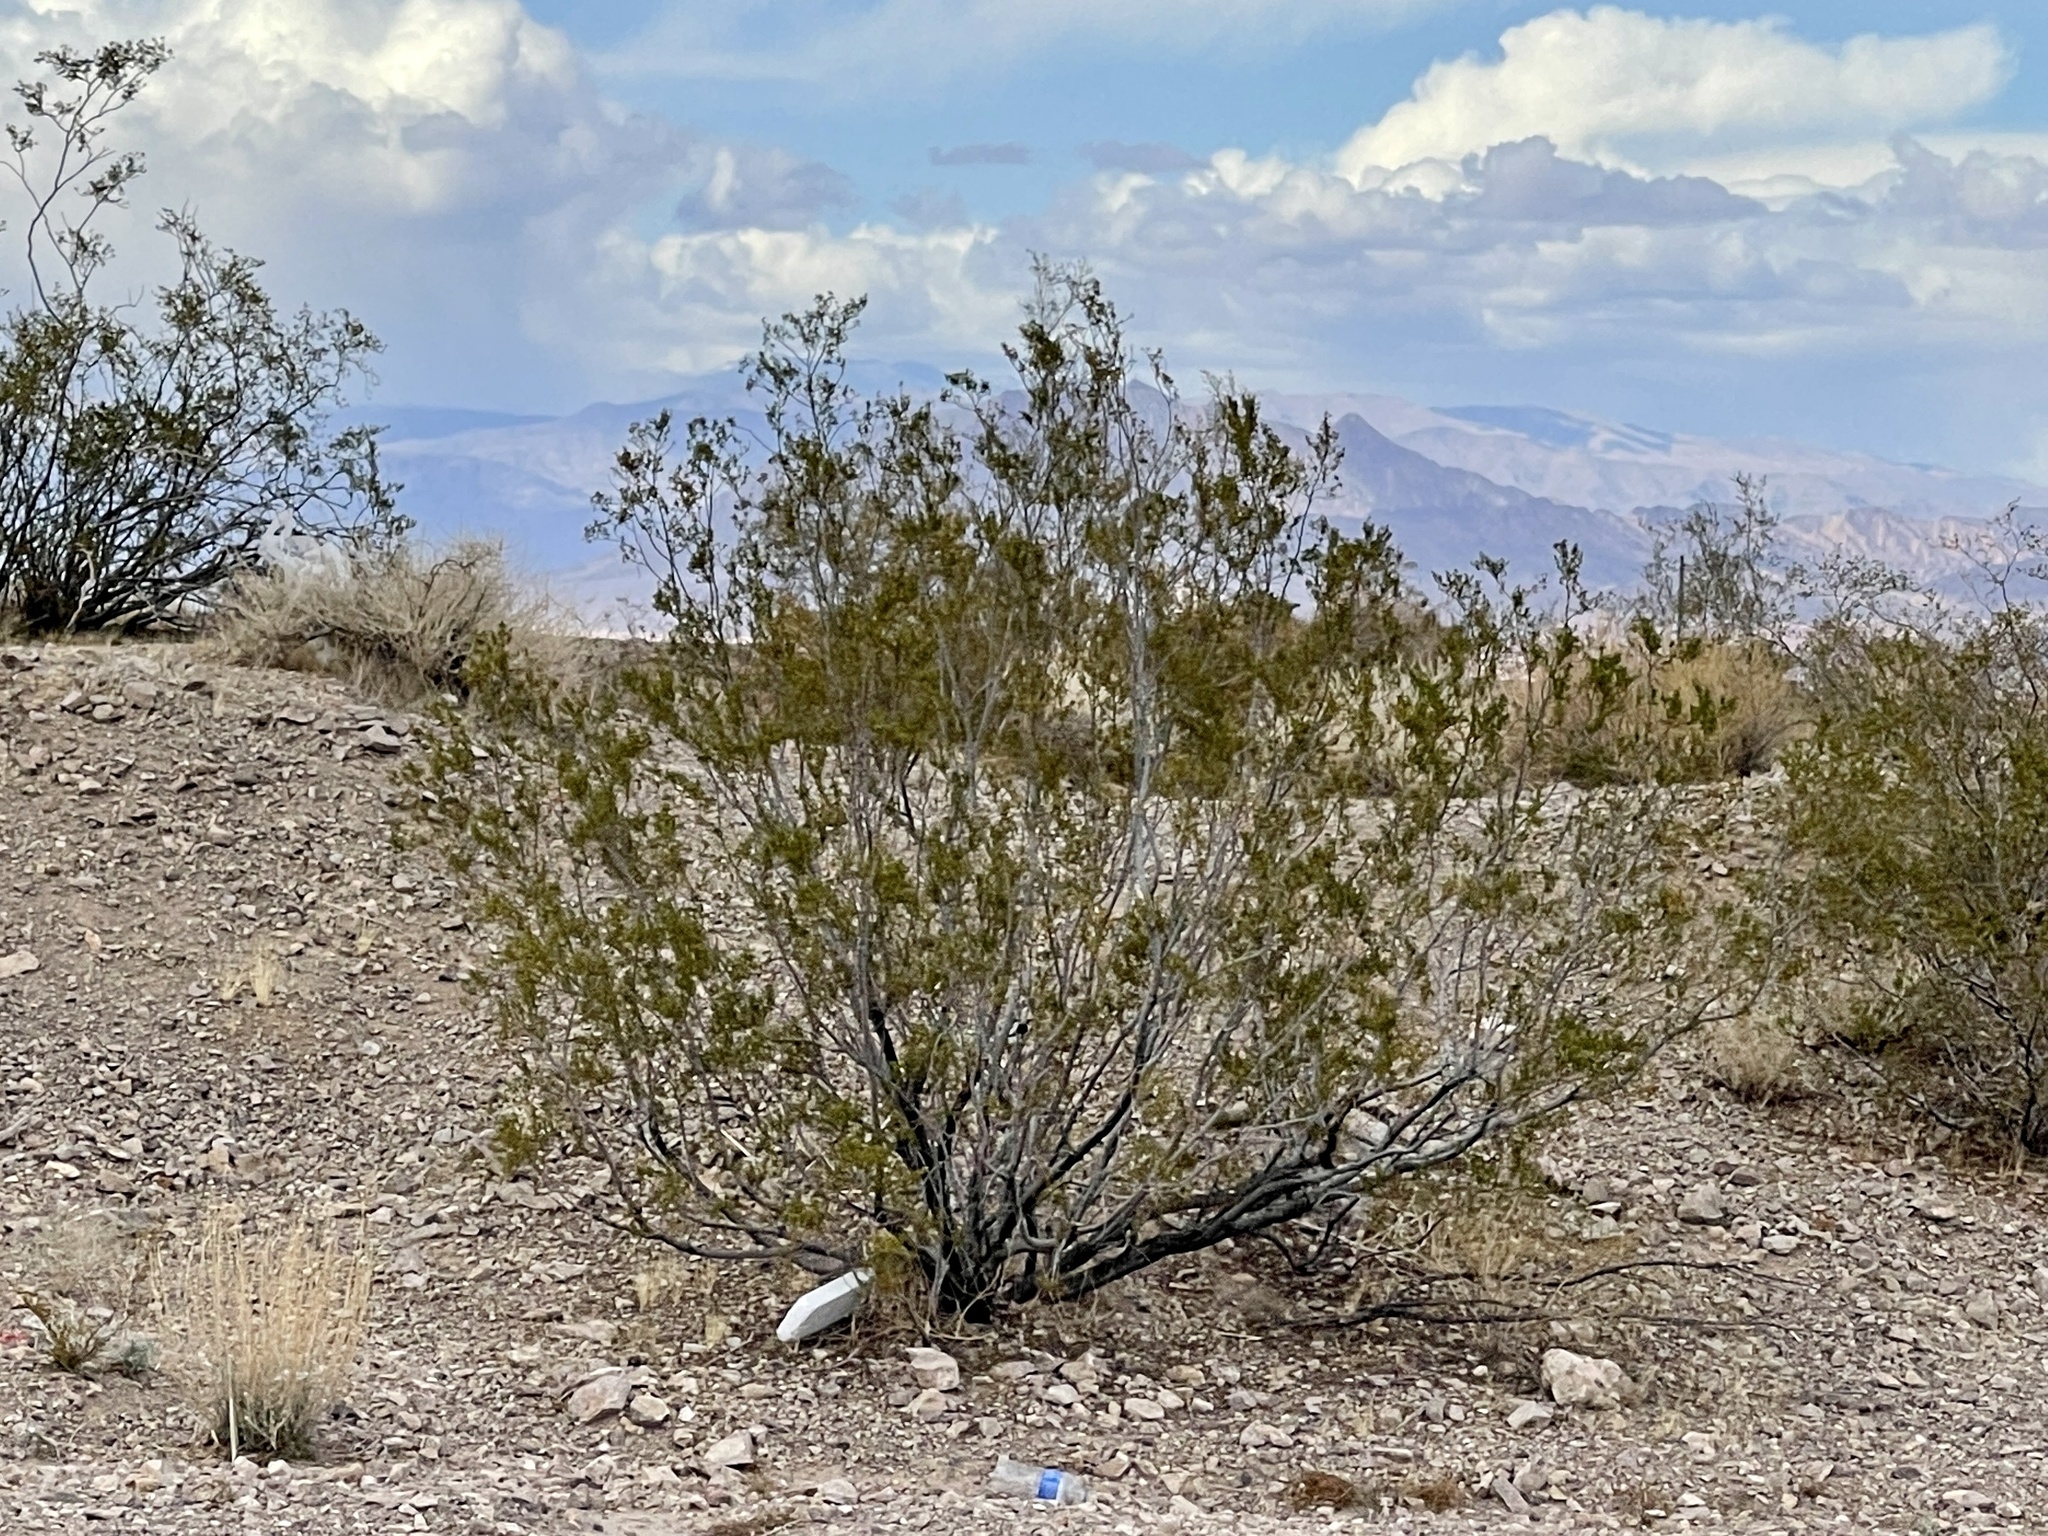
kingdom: Plantae
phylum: Tracheophyta
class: Magnoliopsida
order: Zygophyllales
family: Zygophyllaceae
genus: Larrea
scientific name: Larrea tridentata
